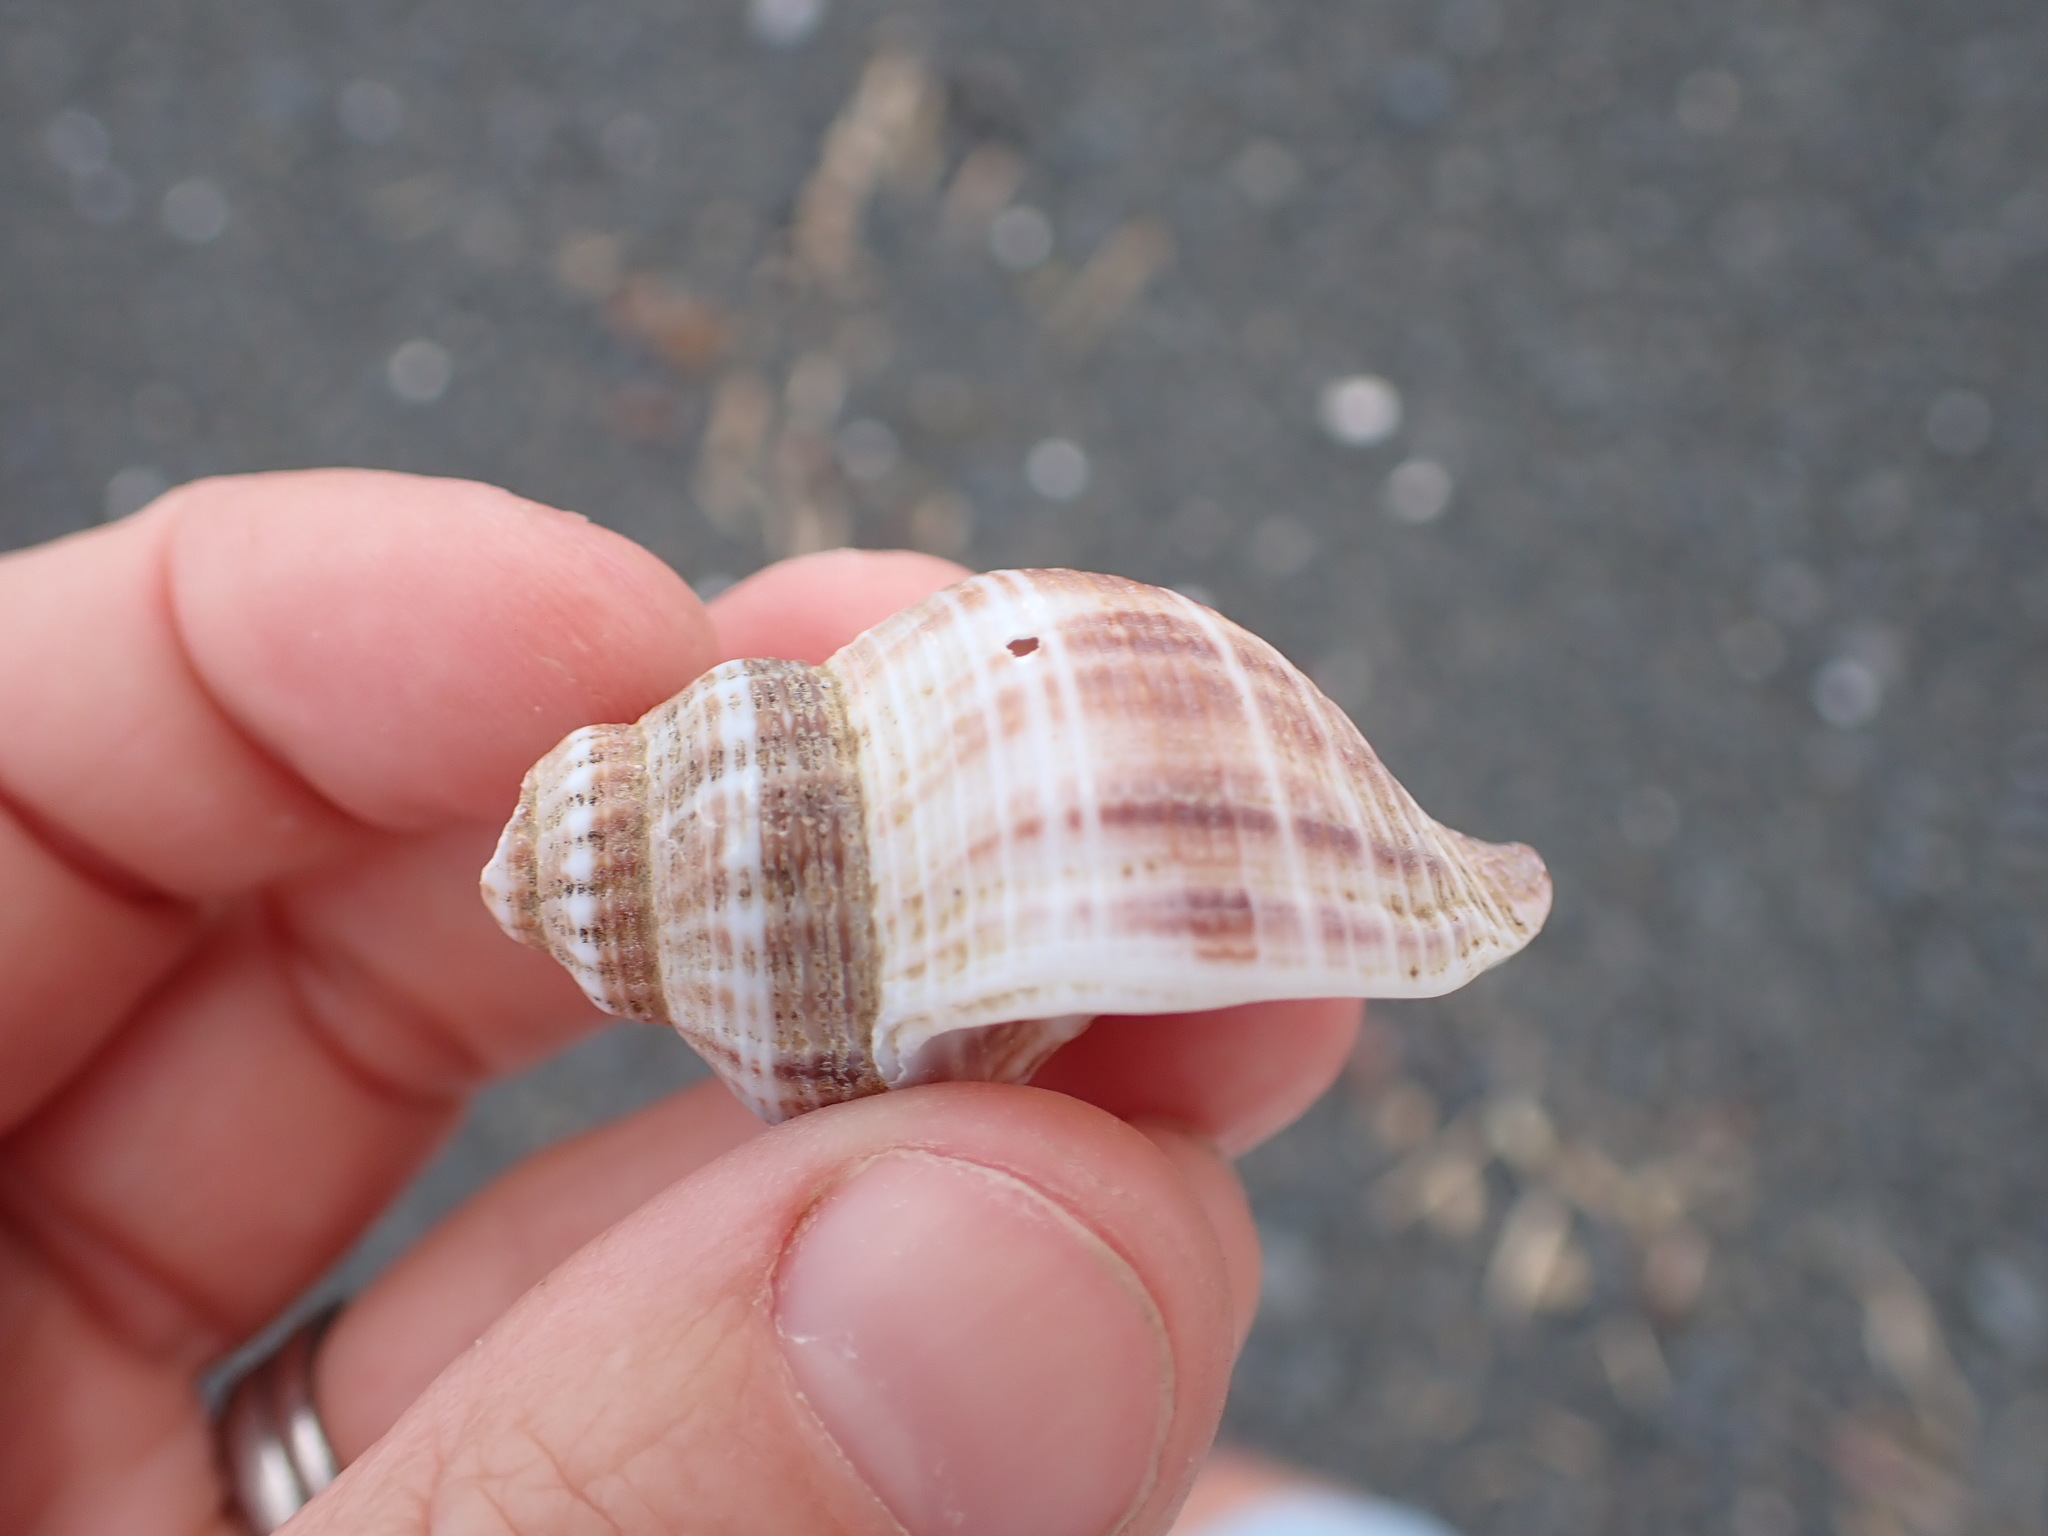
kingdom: Animalia
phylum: Mollusca
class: Gastropoda
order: Neogastropoda
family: Prosiphonidae
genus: Austrofusus
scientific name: Austrofusus glans
